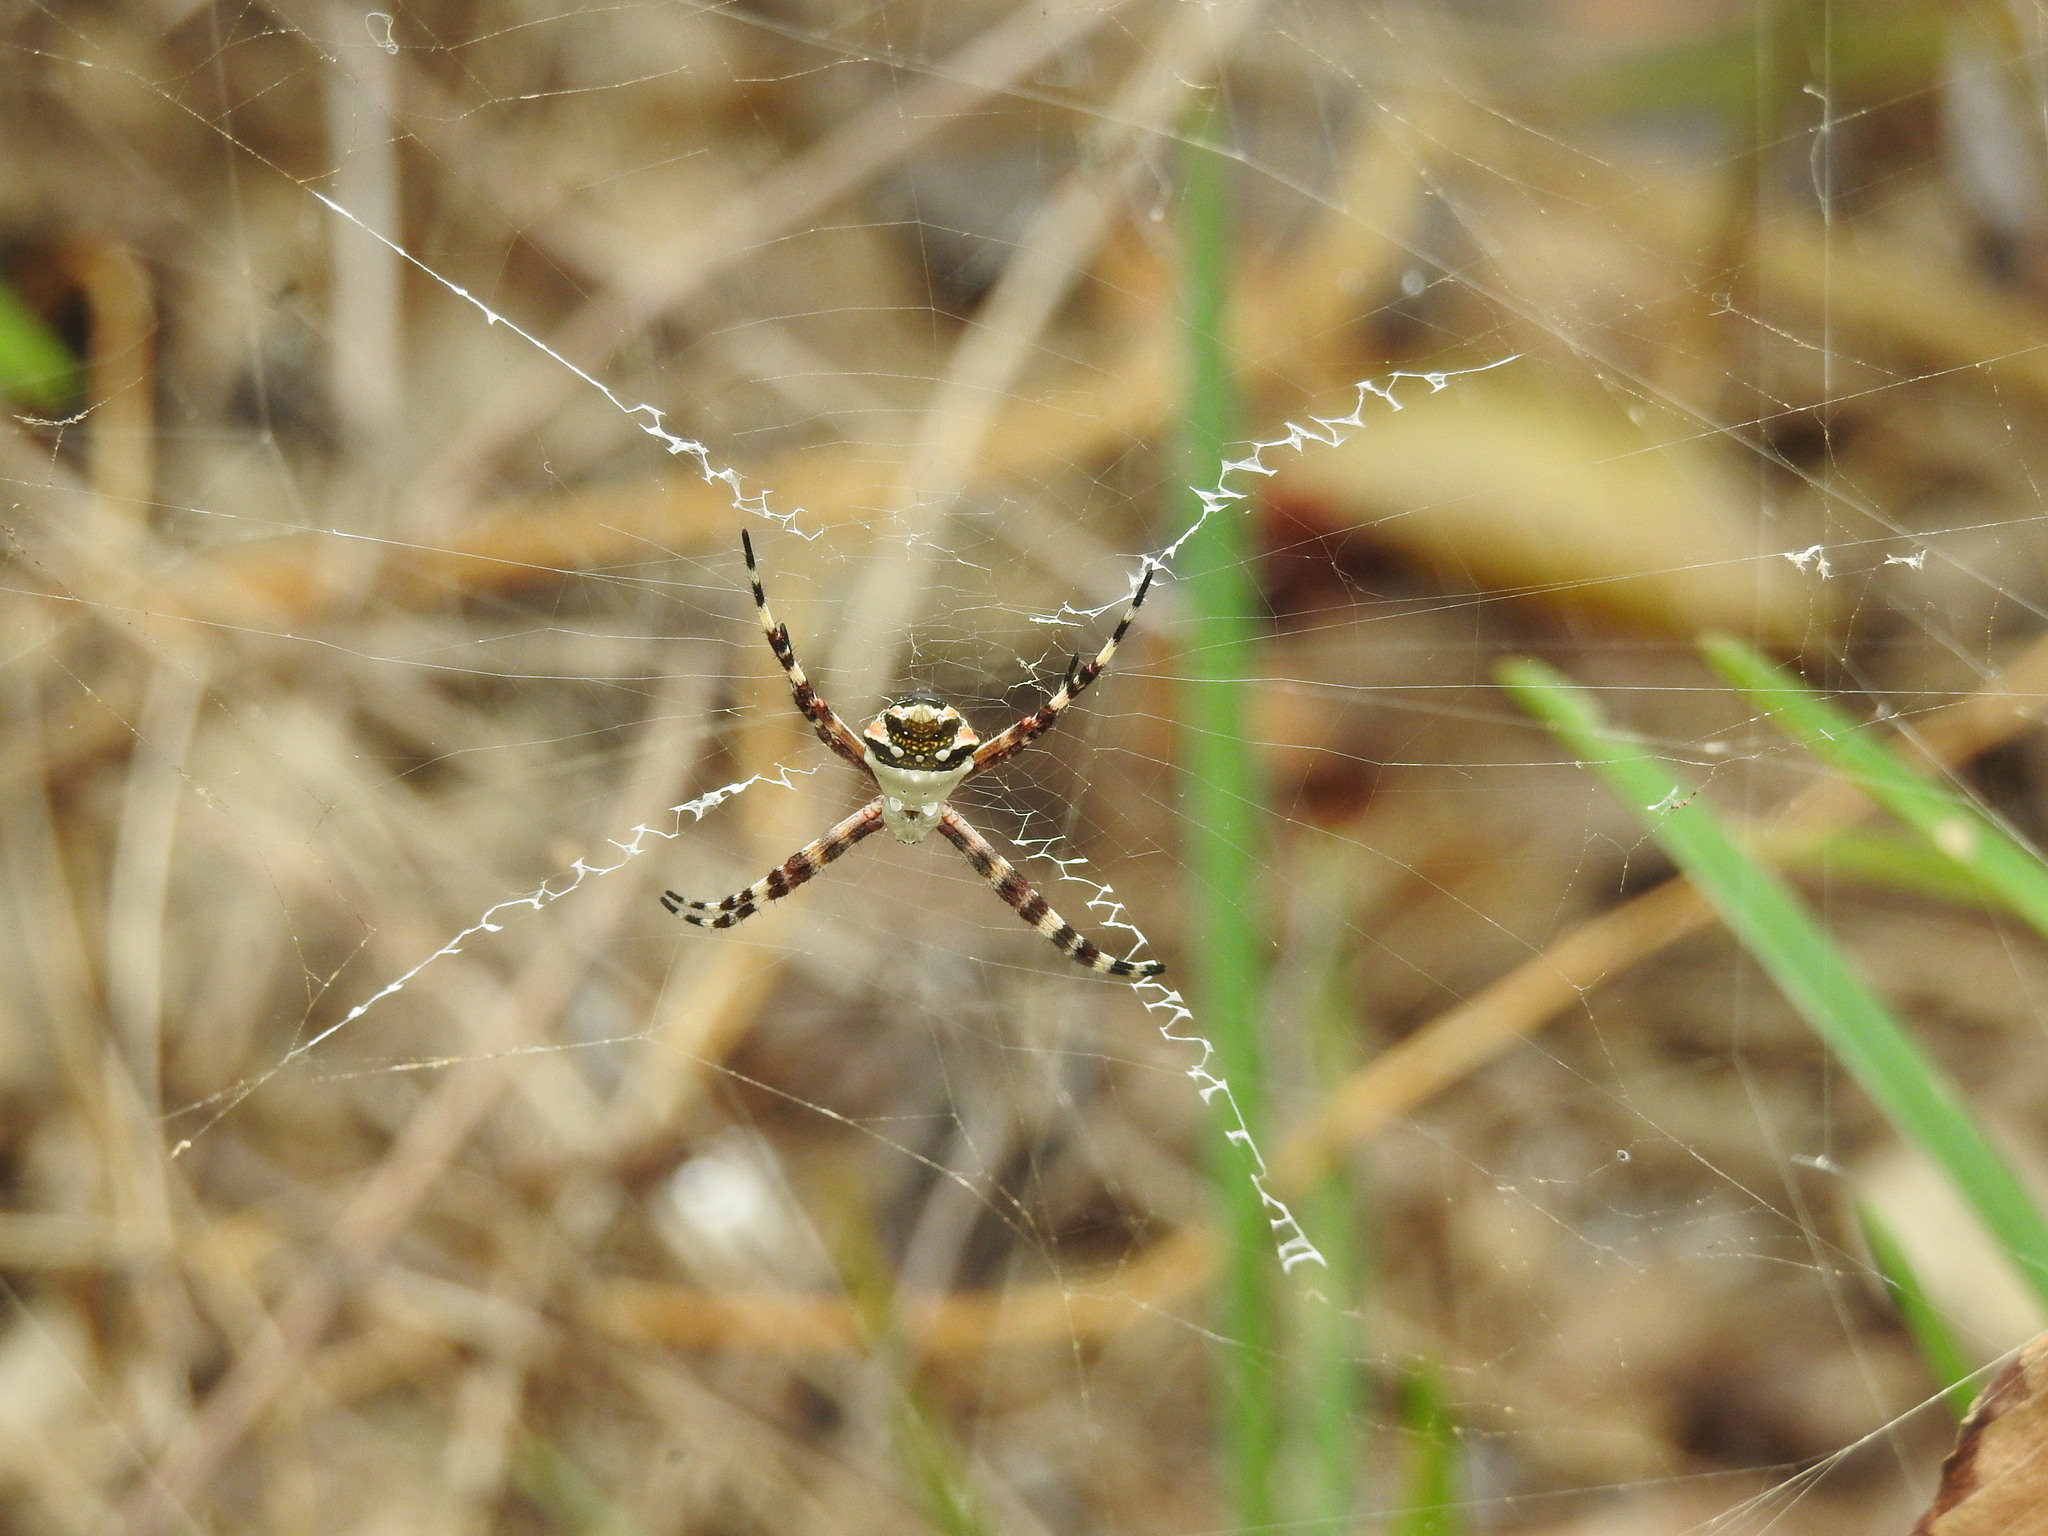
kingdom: Animalia
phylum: Arthropoda
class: Arachnida
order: Araneae
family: Araneidae
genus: Argiope
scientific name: Argiope argentata
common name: Orb weavers
